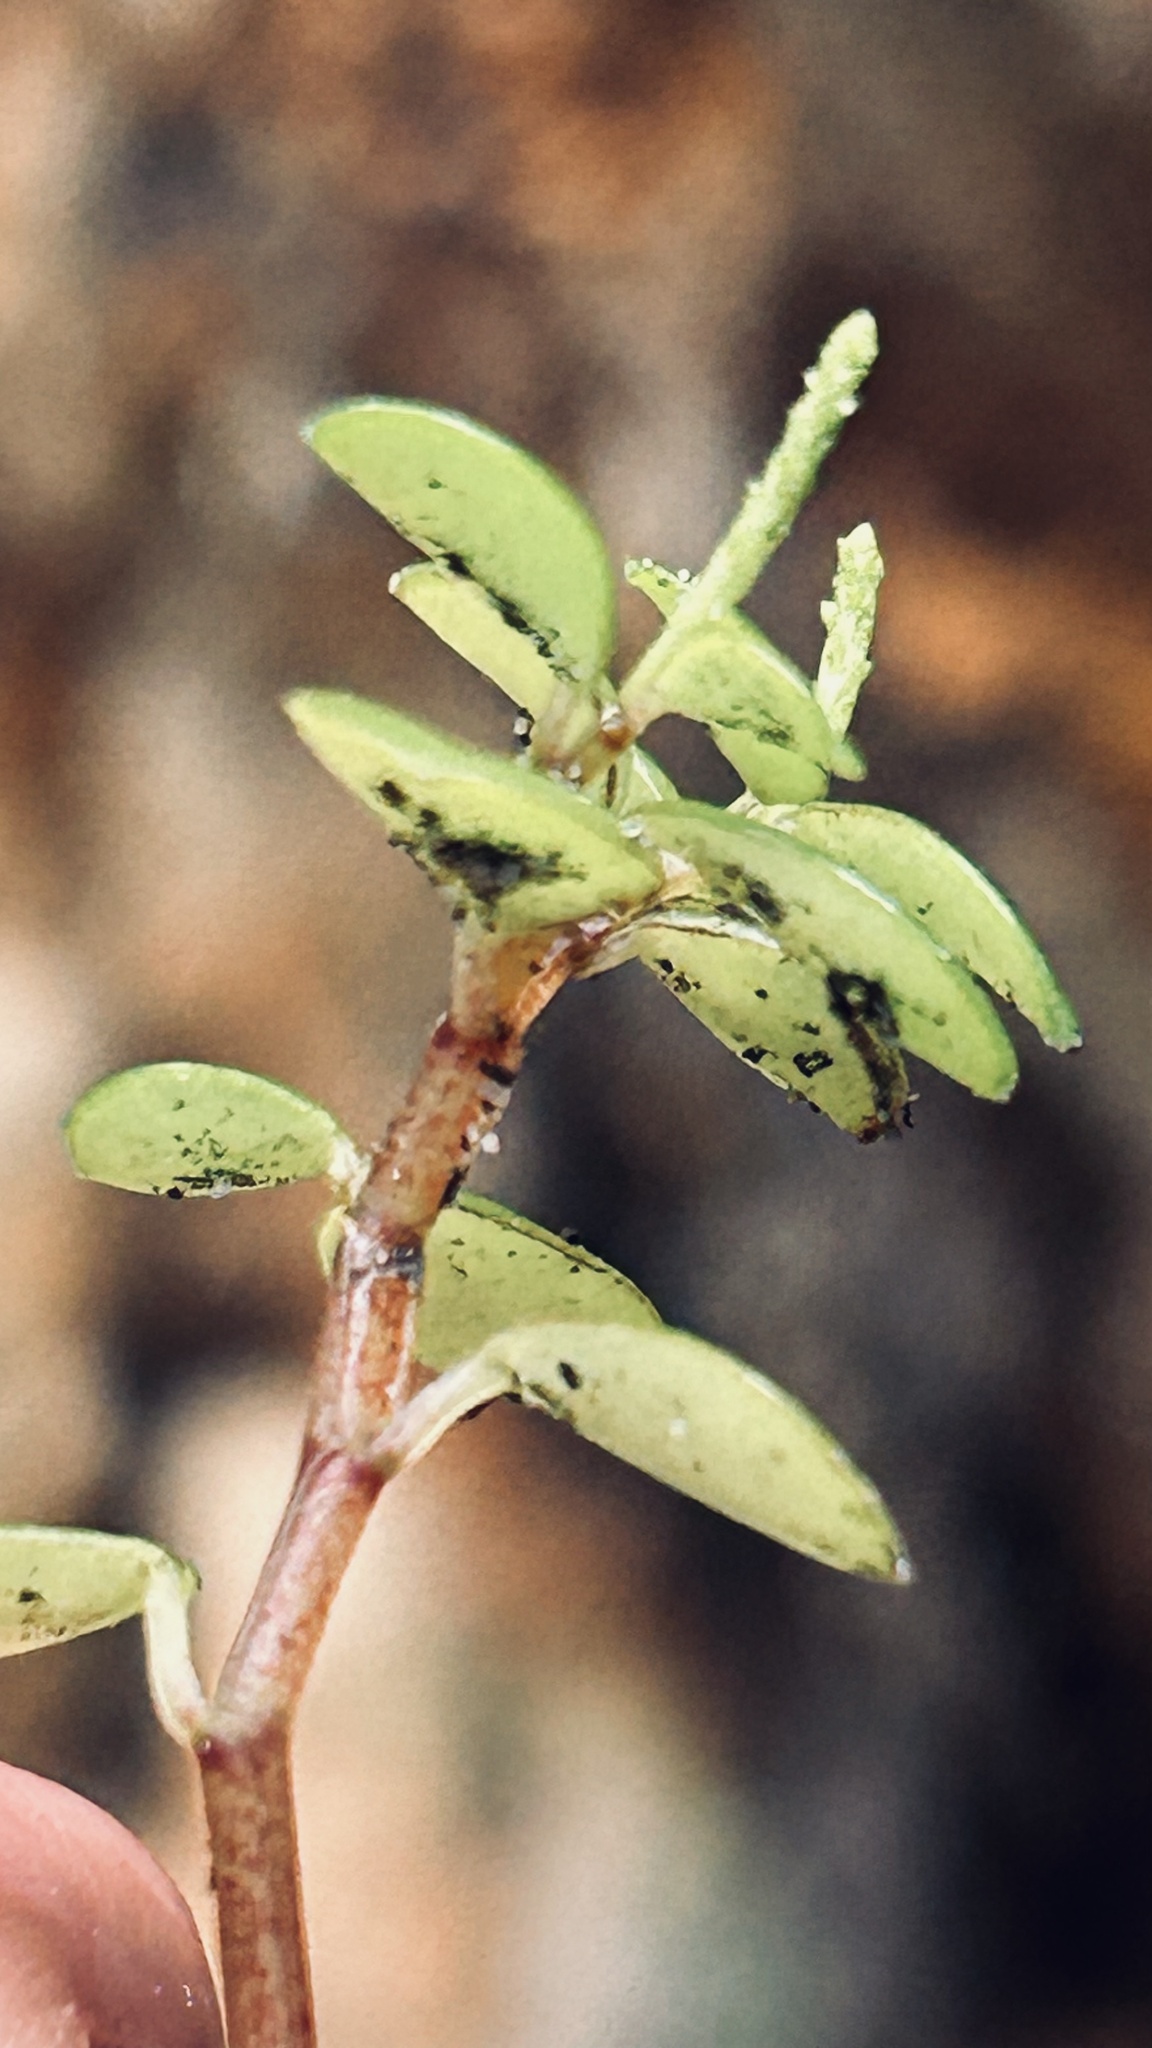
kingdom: Plantae
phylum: Tracheophyta
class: Magnoliopsida
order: Piperales
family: Piperaceae
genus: Peperomia
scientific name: Peperomia retusa
